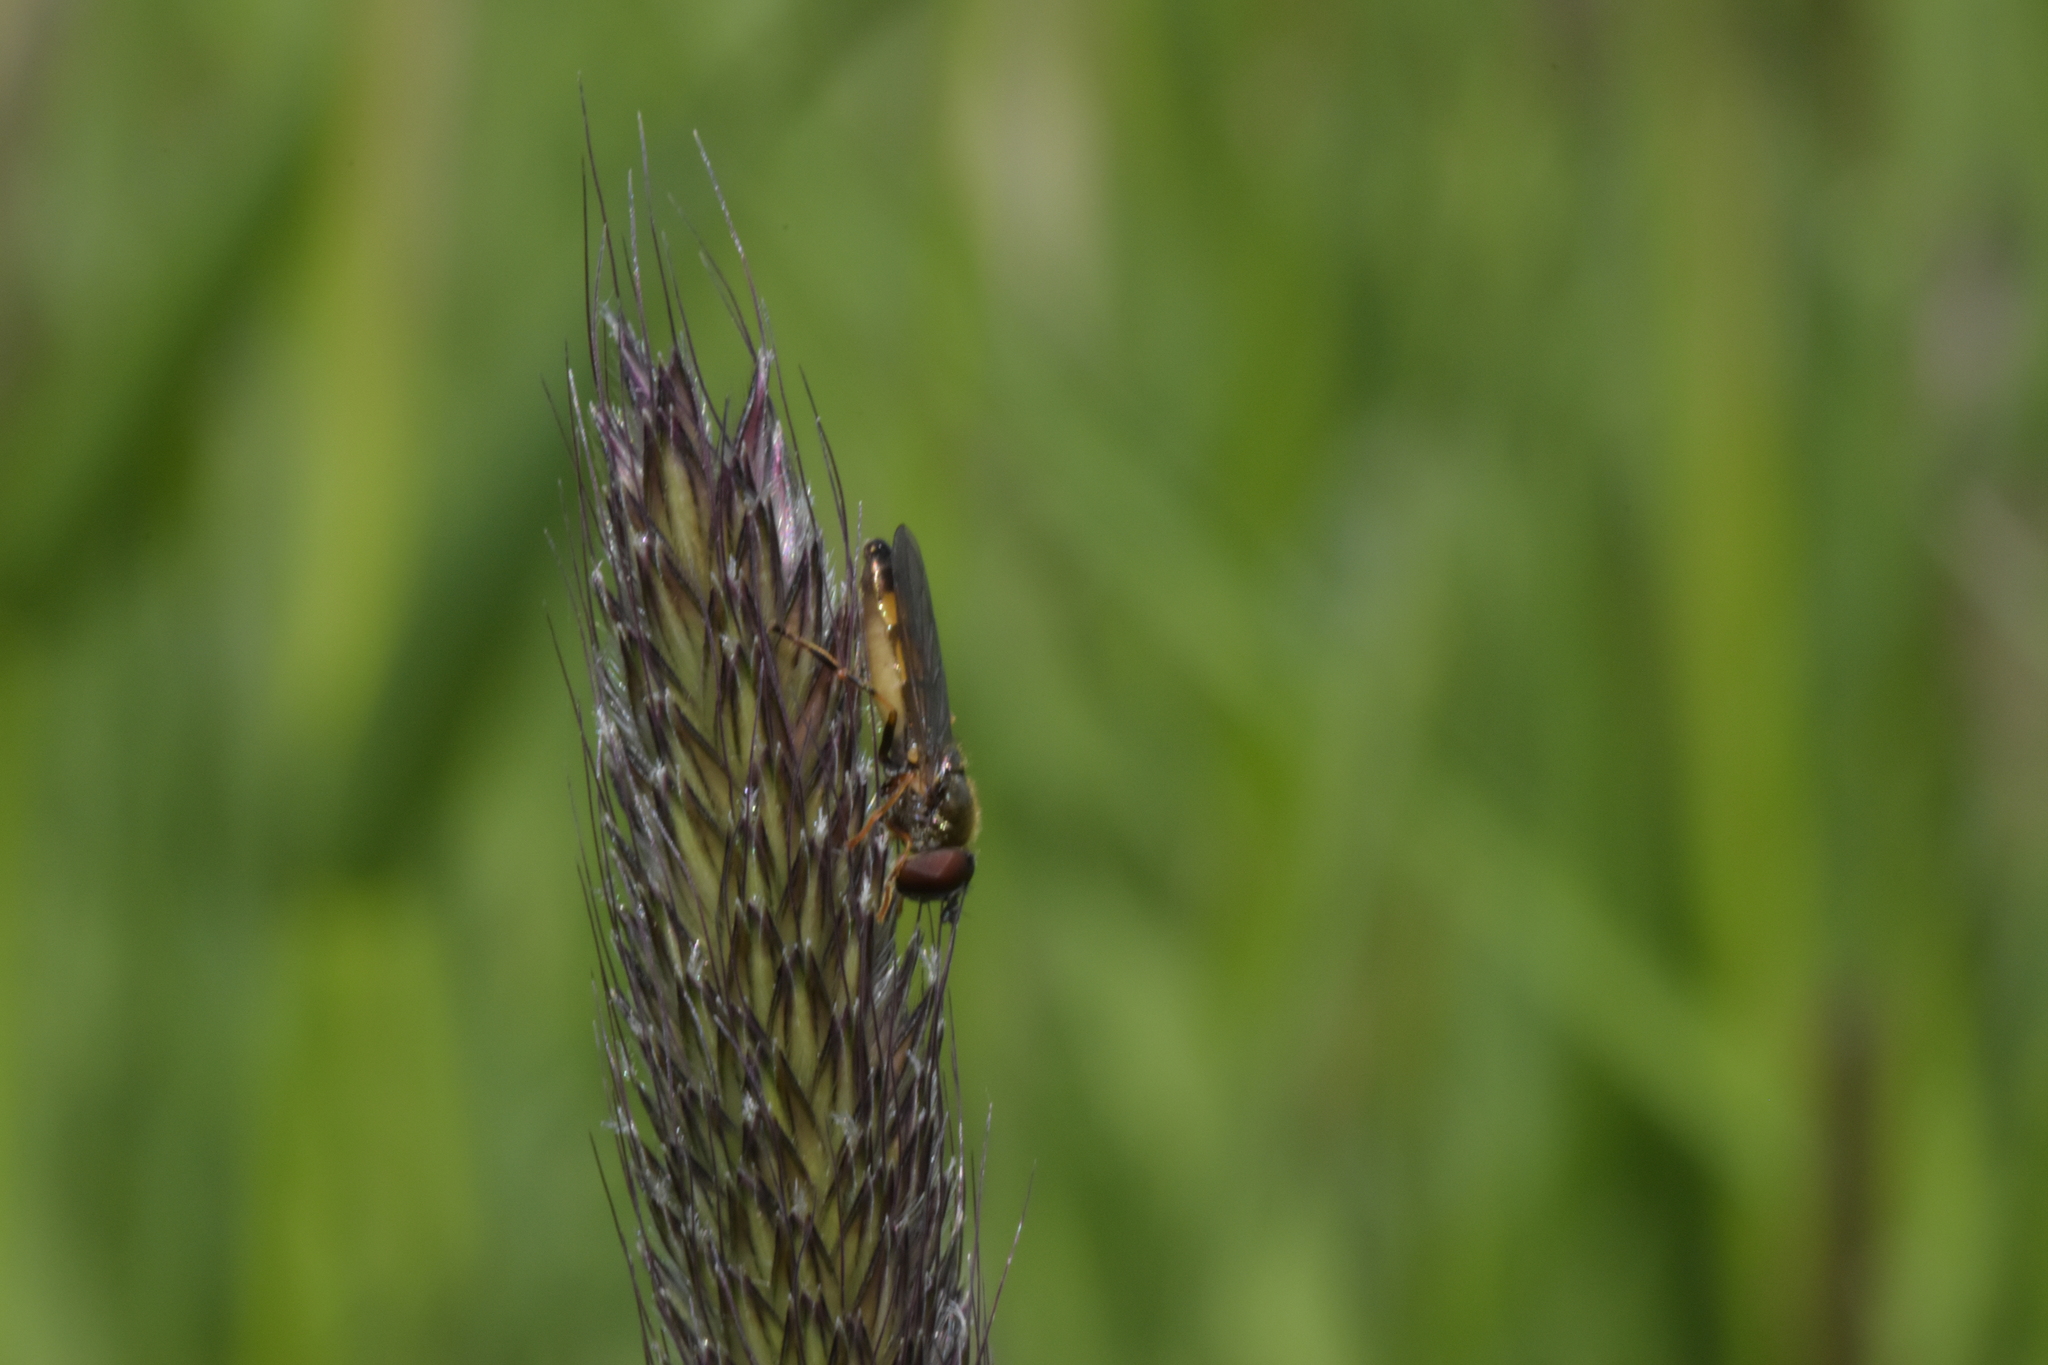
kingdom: Animalia
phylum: Arthropoda
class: Insecta
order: Diptera
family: Syrphidae
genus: Melanostoma
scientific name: Melanostoma mellina
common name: Hover fly
